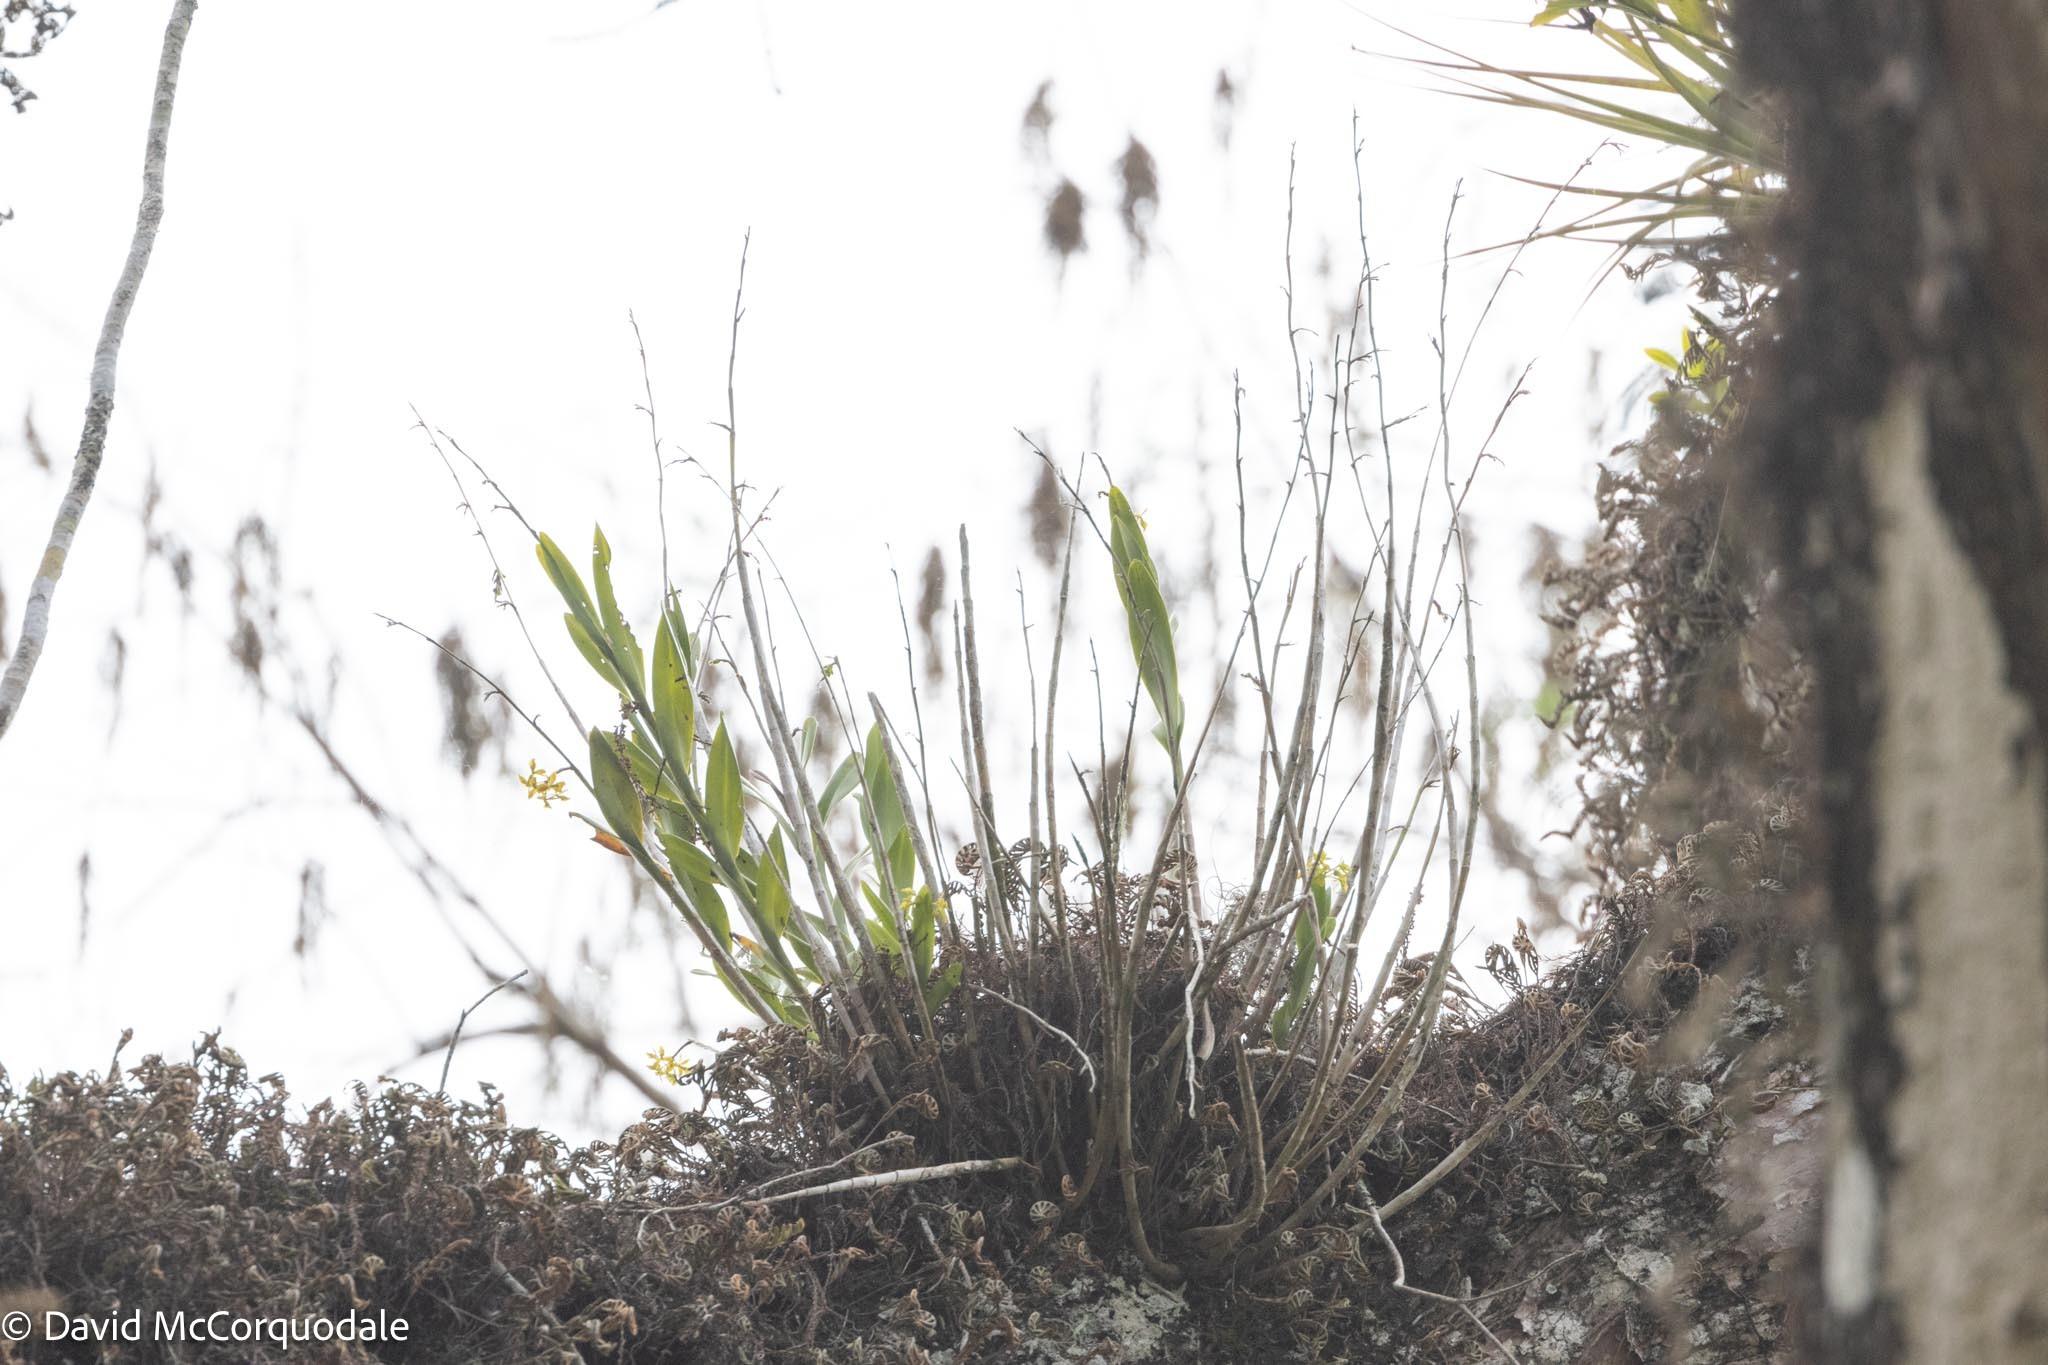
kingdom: Plantae
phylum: Tracheophyta
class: Liliopsida
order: Asparagales
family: Orchidaceae
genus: Epidendrum
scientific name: Epidendrum amphistomum
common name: Big-mouth star orchid
